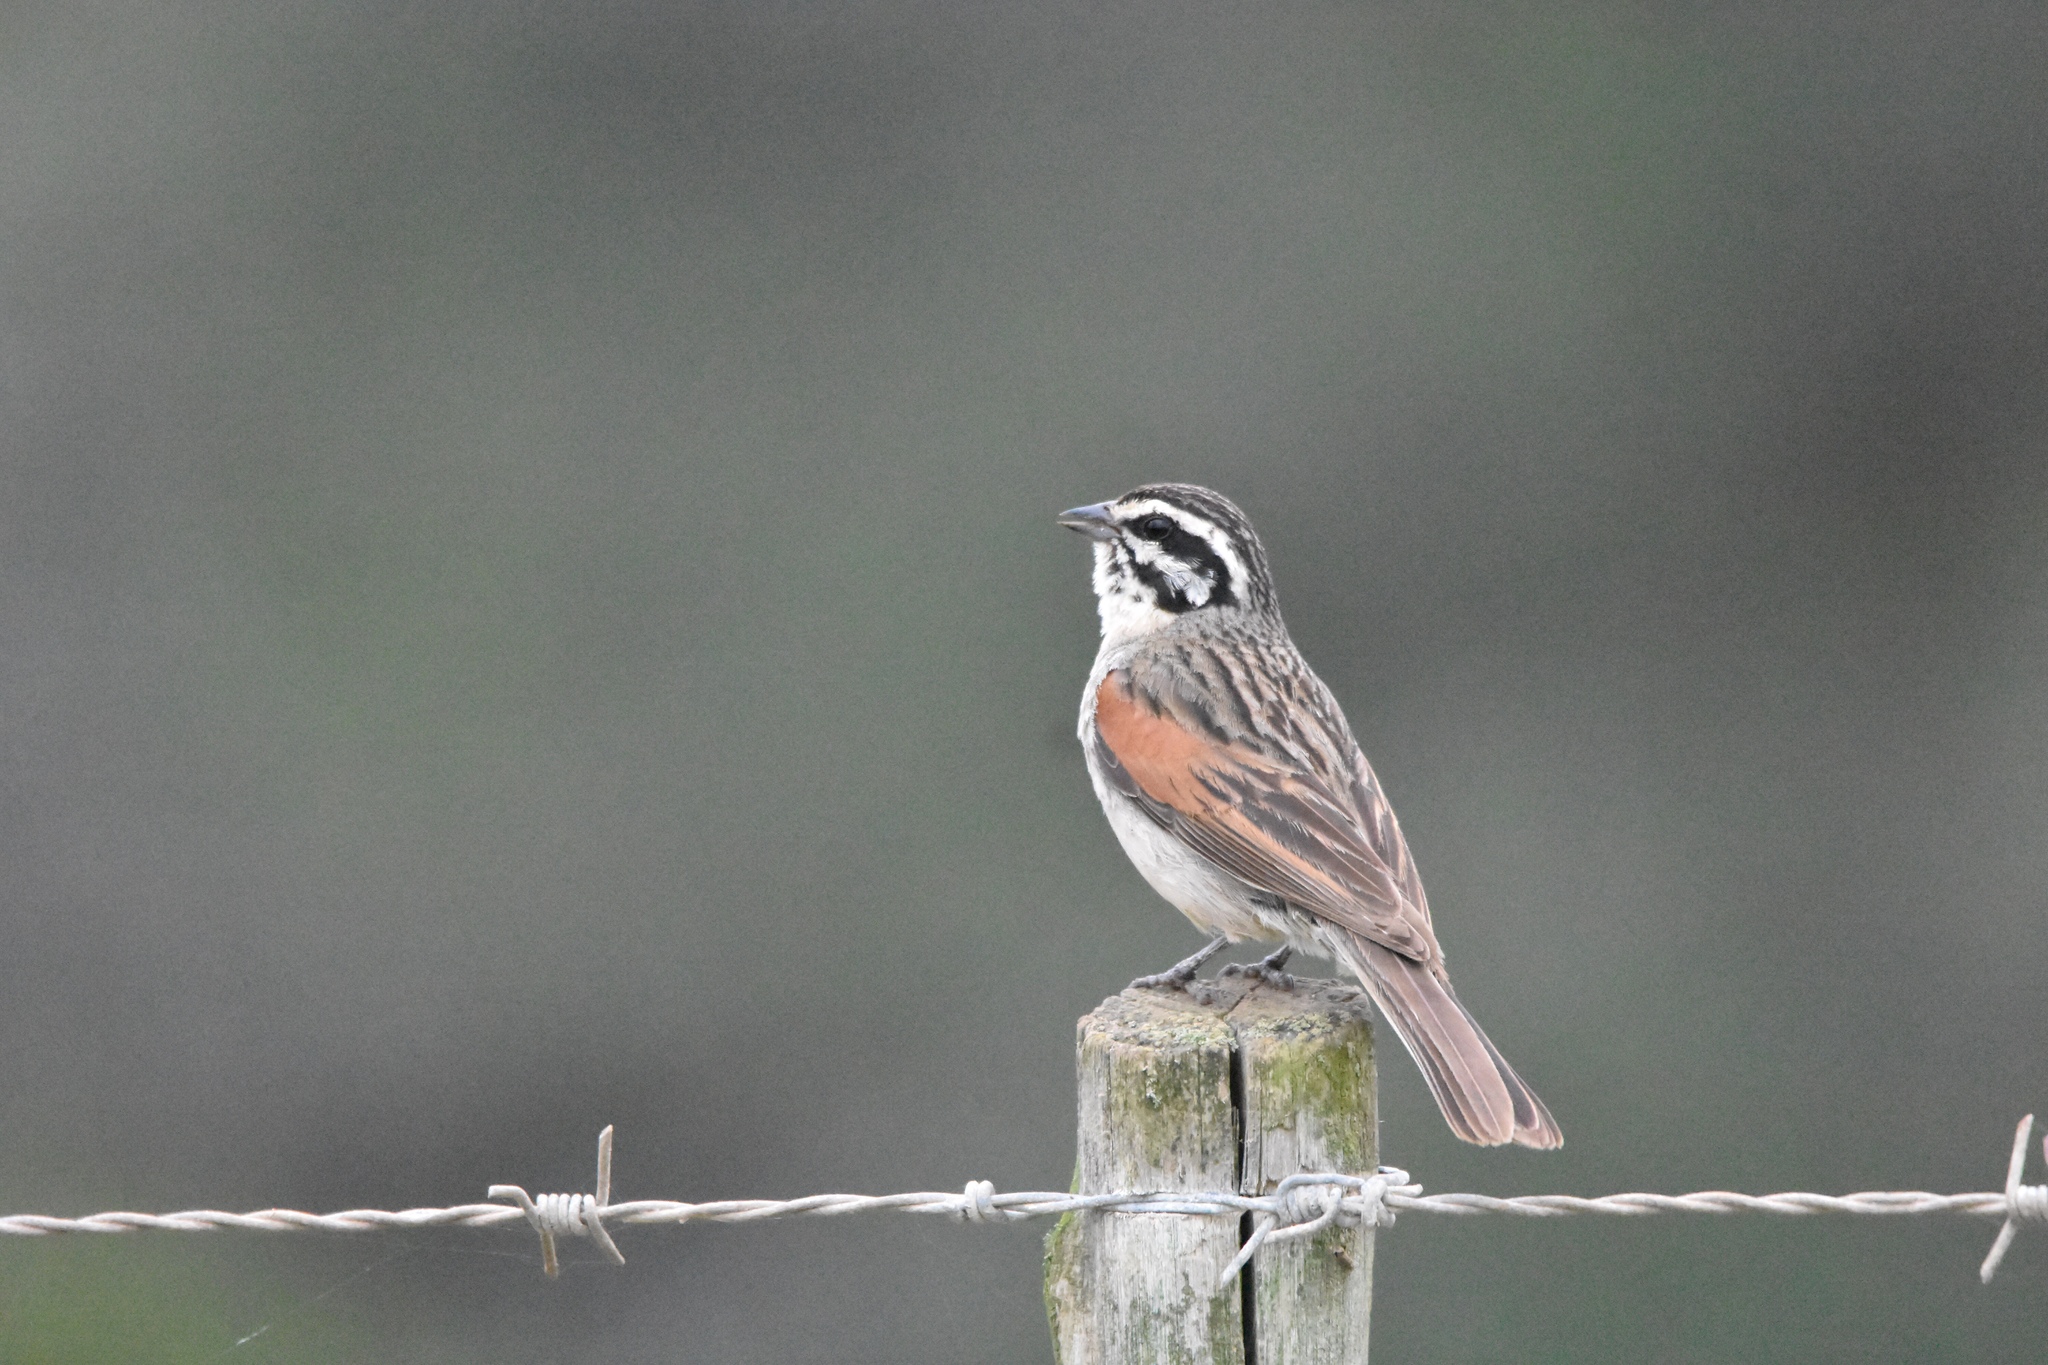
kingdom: Animalia
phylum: Chordata
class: Aves
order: Passeriformes
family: Emberizidae
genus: Emberiza
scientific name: Emberiza capensis
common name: Cape bunting
